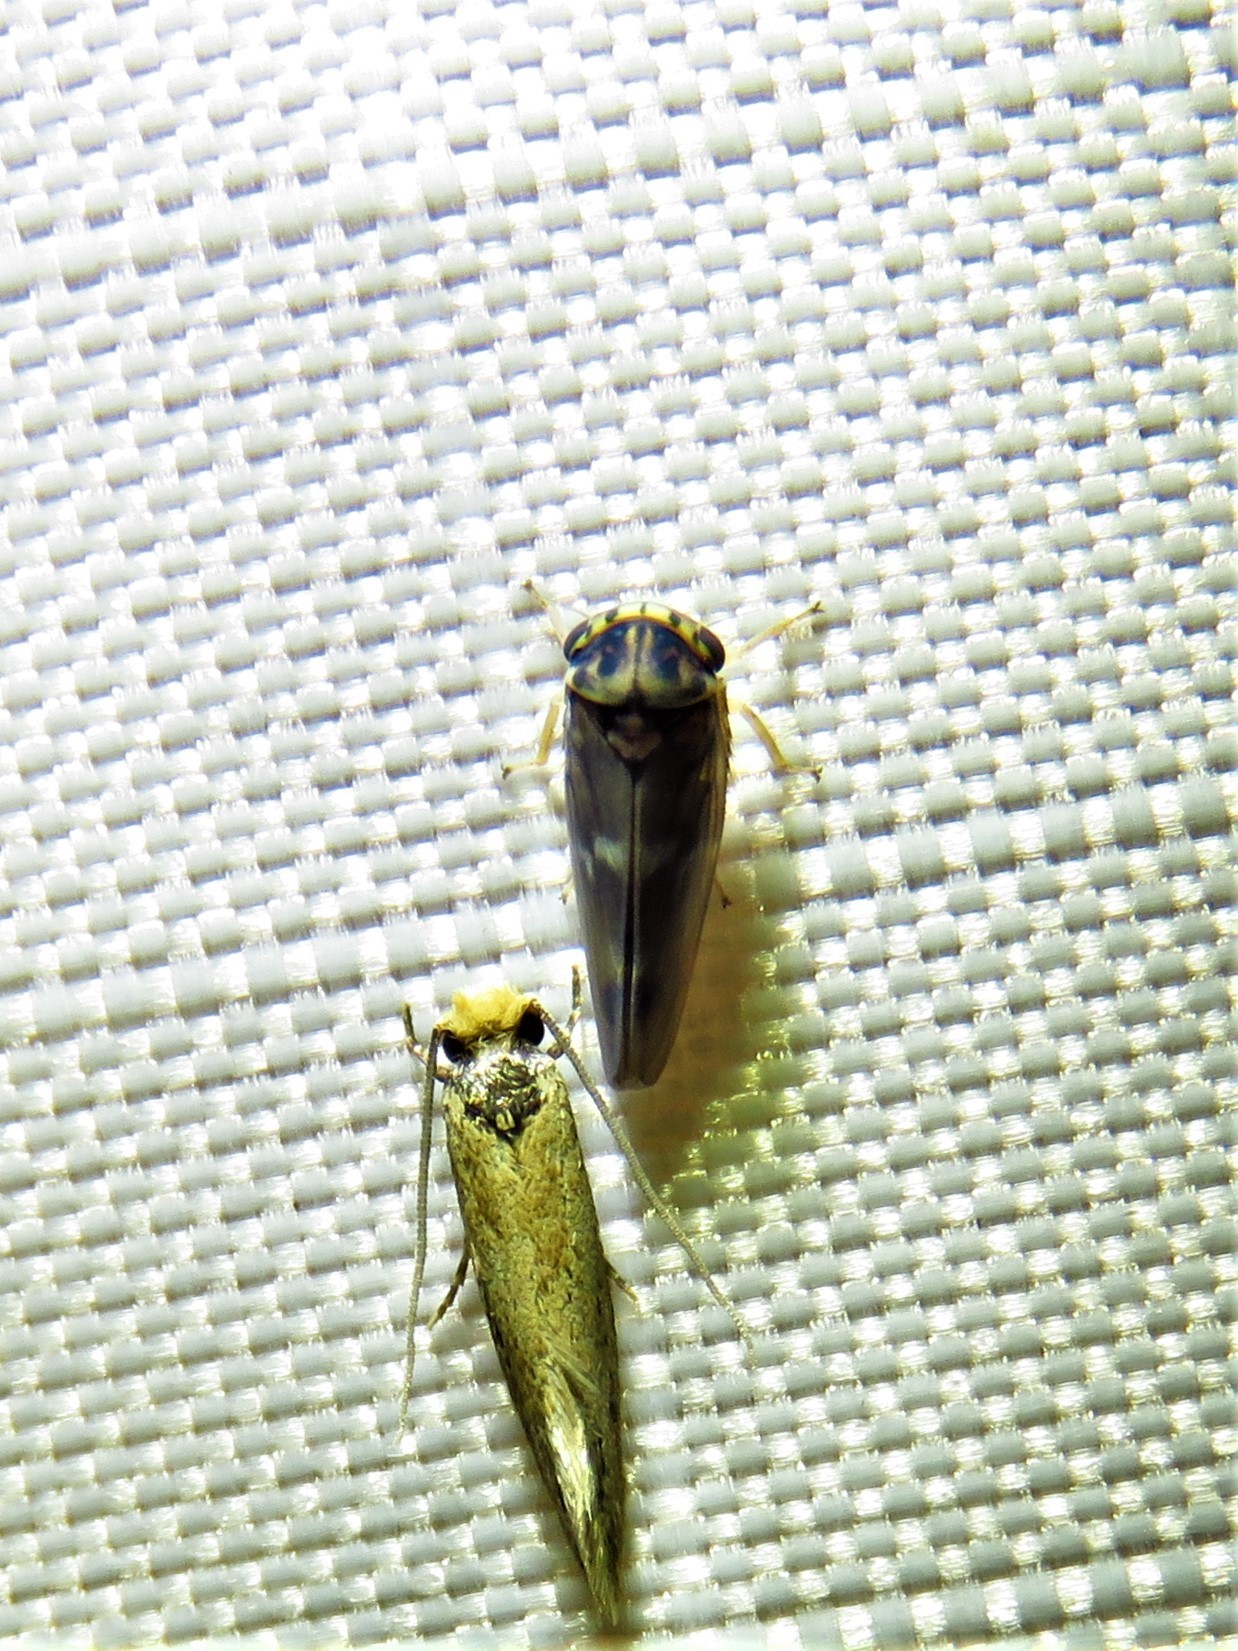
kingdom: Animalia
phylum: Arthropoda
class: Insecta
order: Hemiptera
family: Cicadellidae
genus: Agalliopsis
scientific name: Agalliopsis cervina
